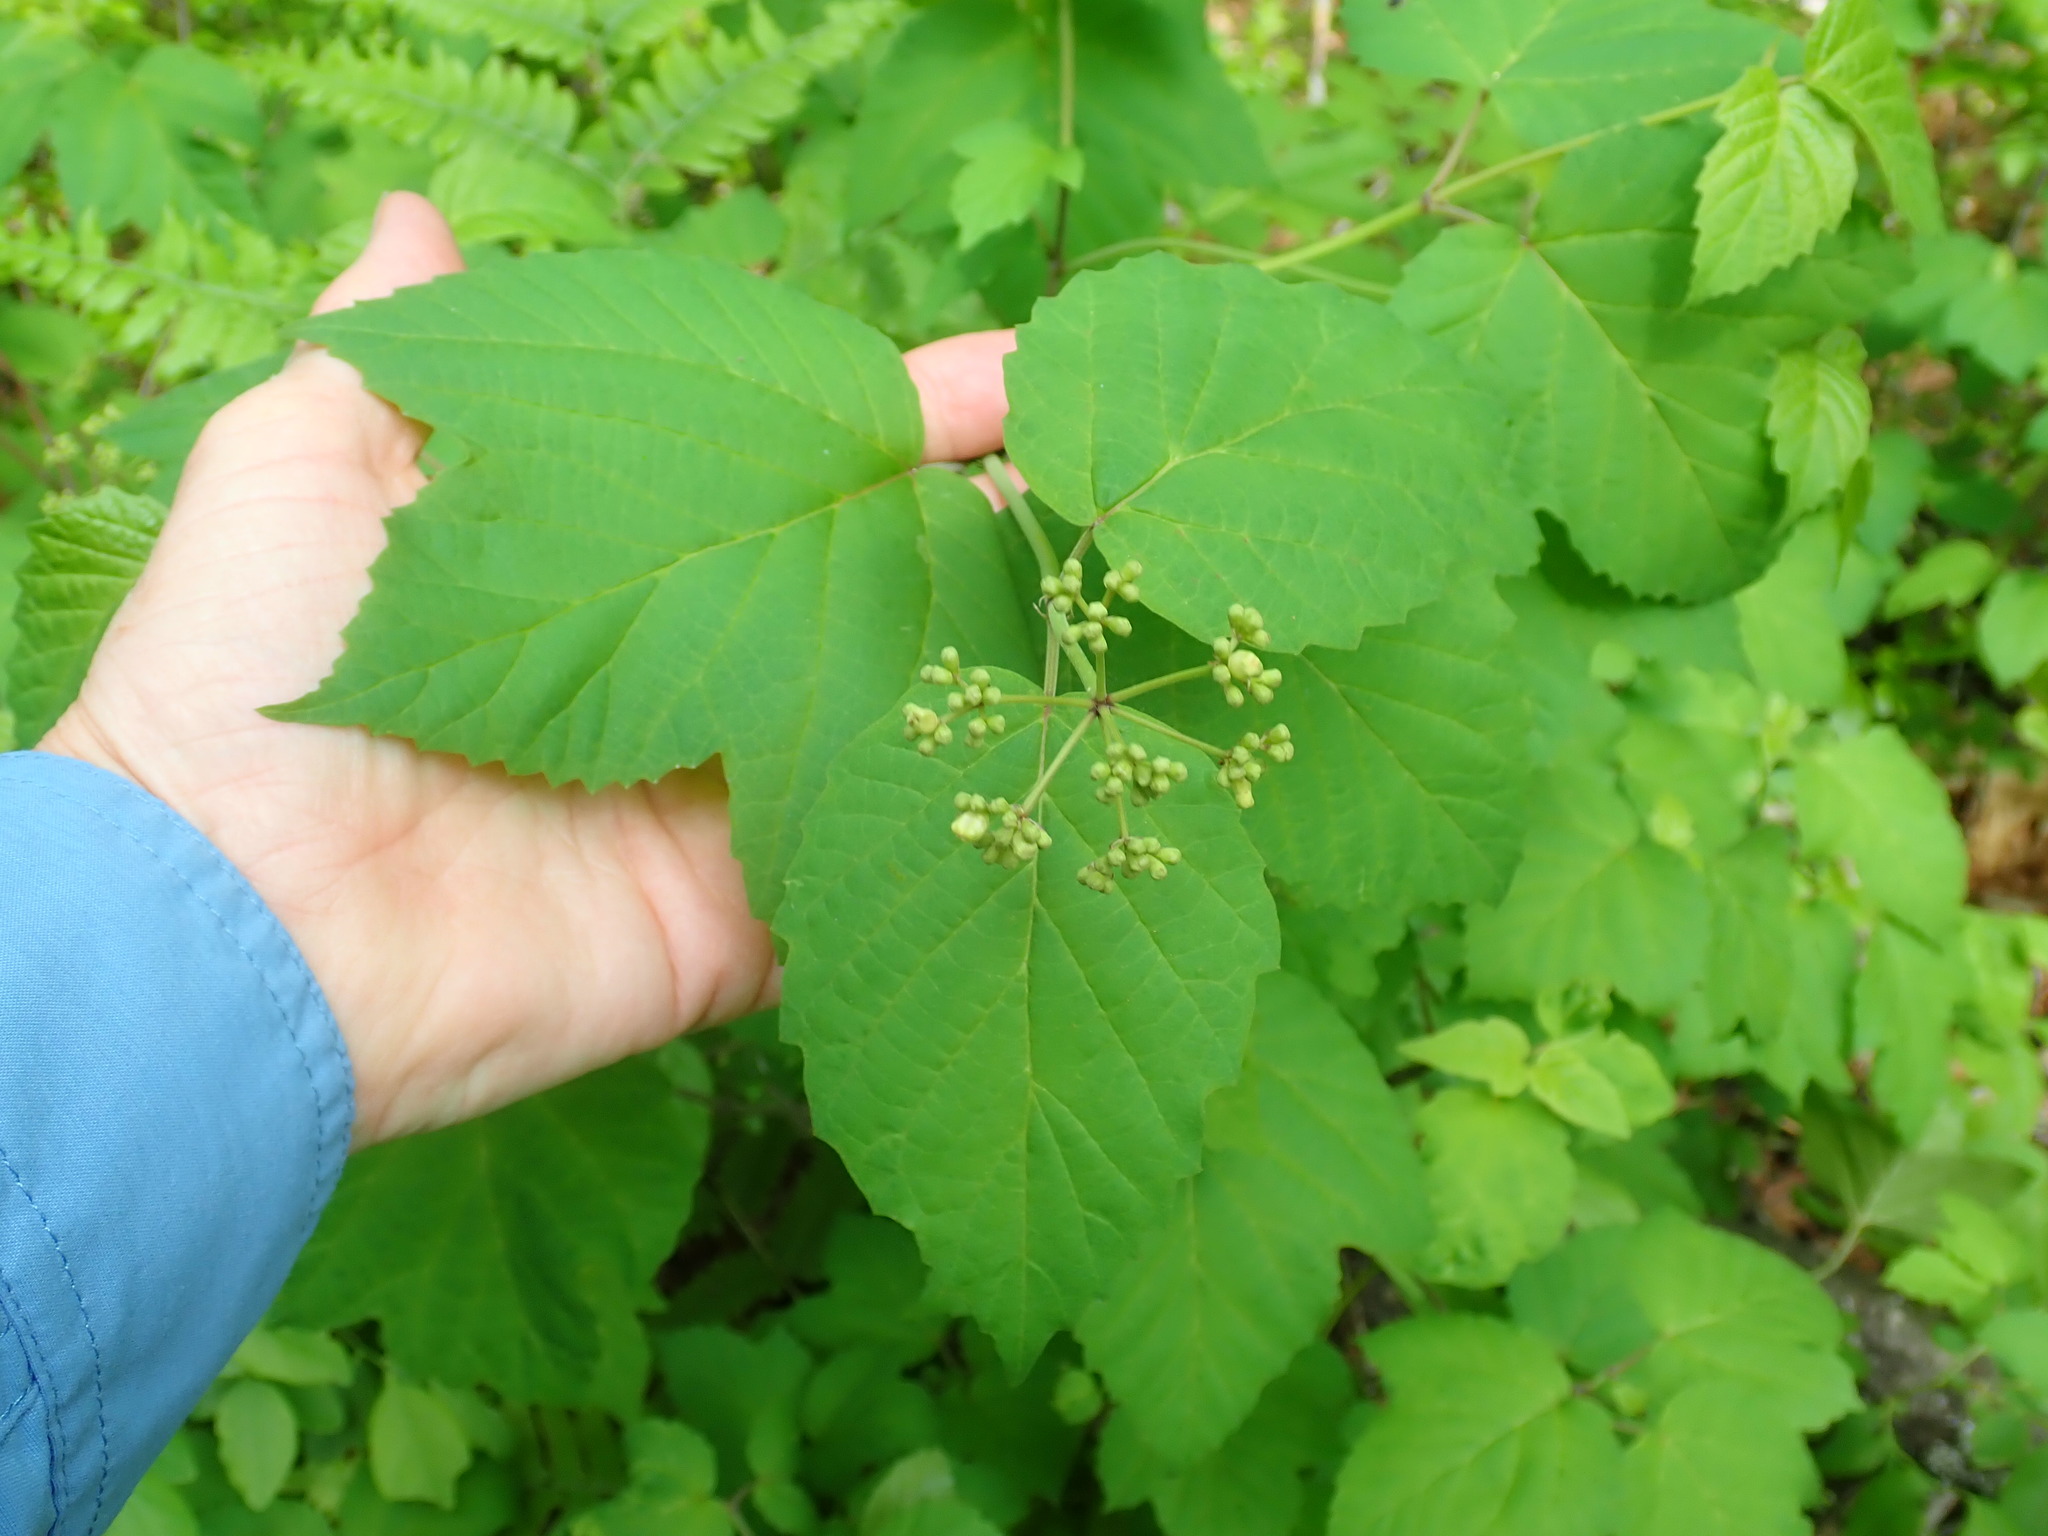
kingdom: Plantae
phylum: Tracheophyta
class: Magnoliopsida
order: Dipsacales
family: Viburnaceae
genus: Viburnum
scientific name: Viburnum acerifolium
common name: Dockmackie
